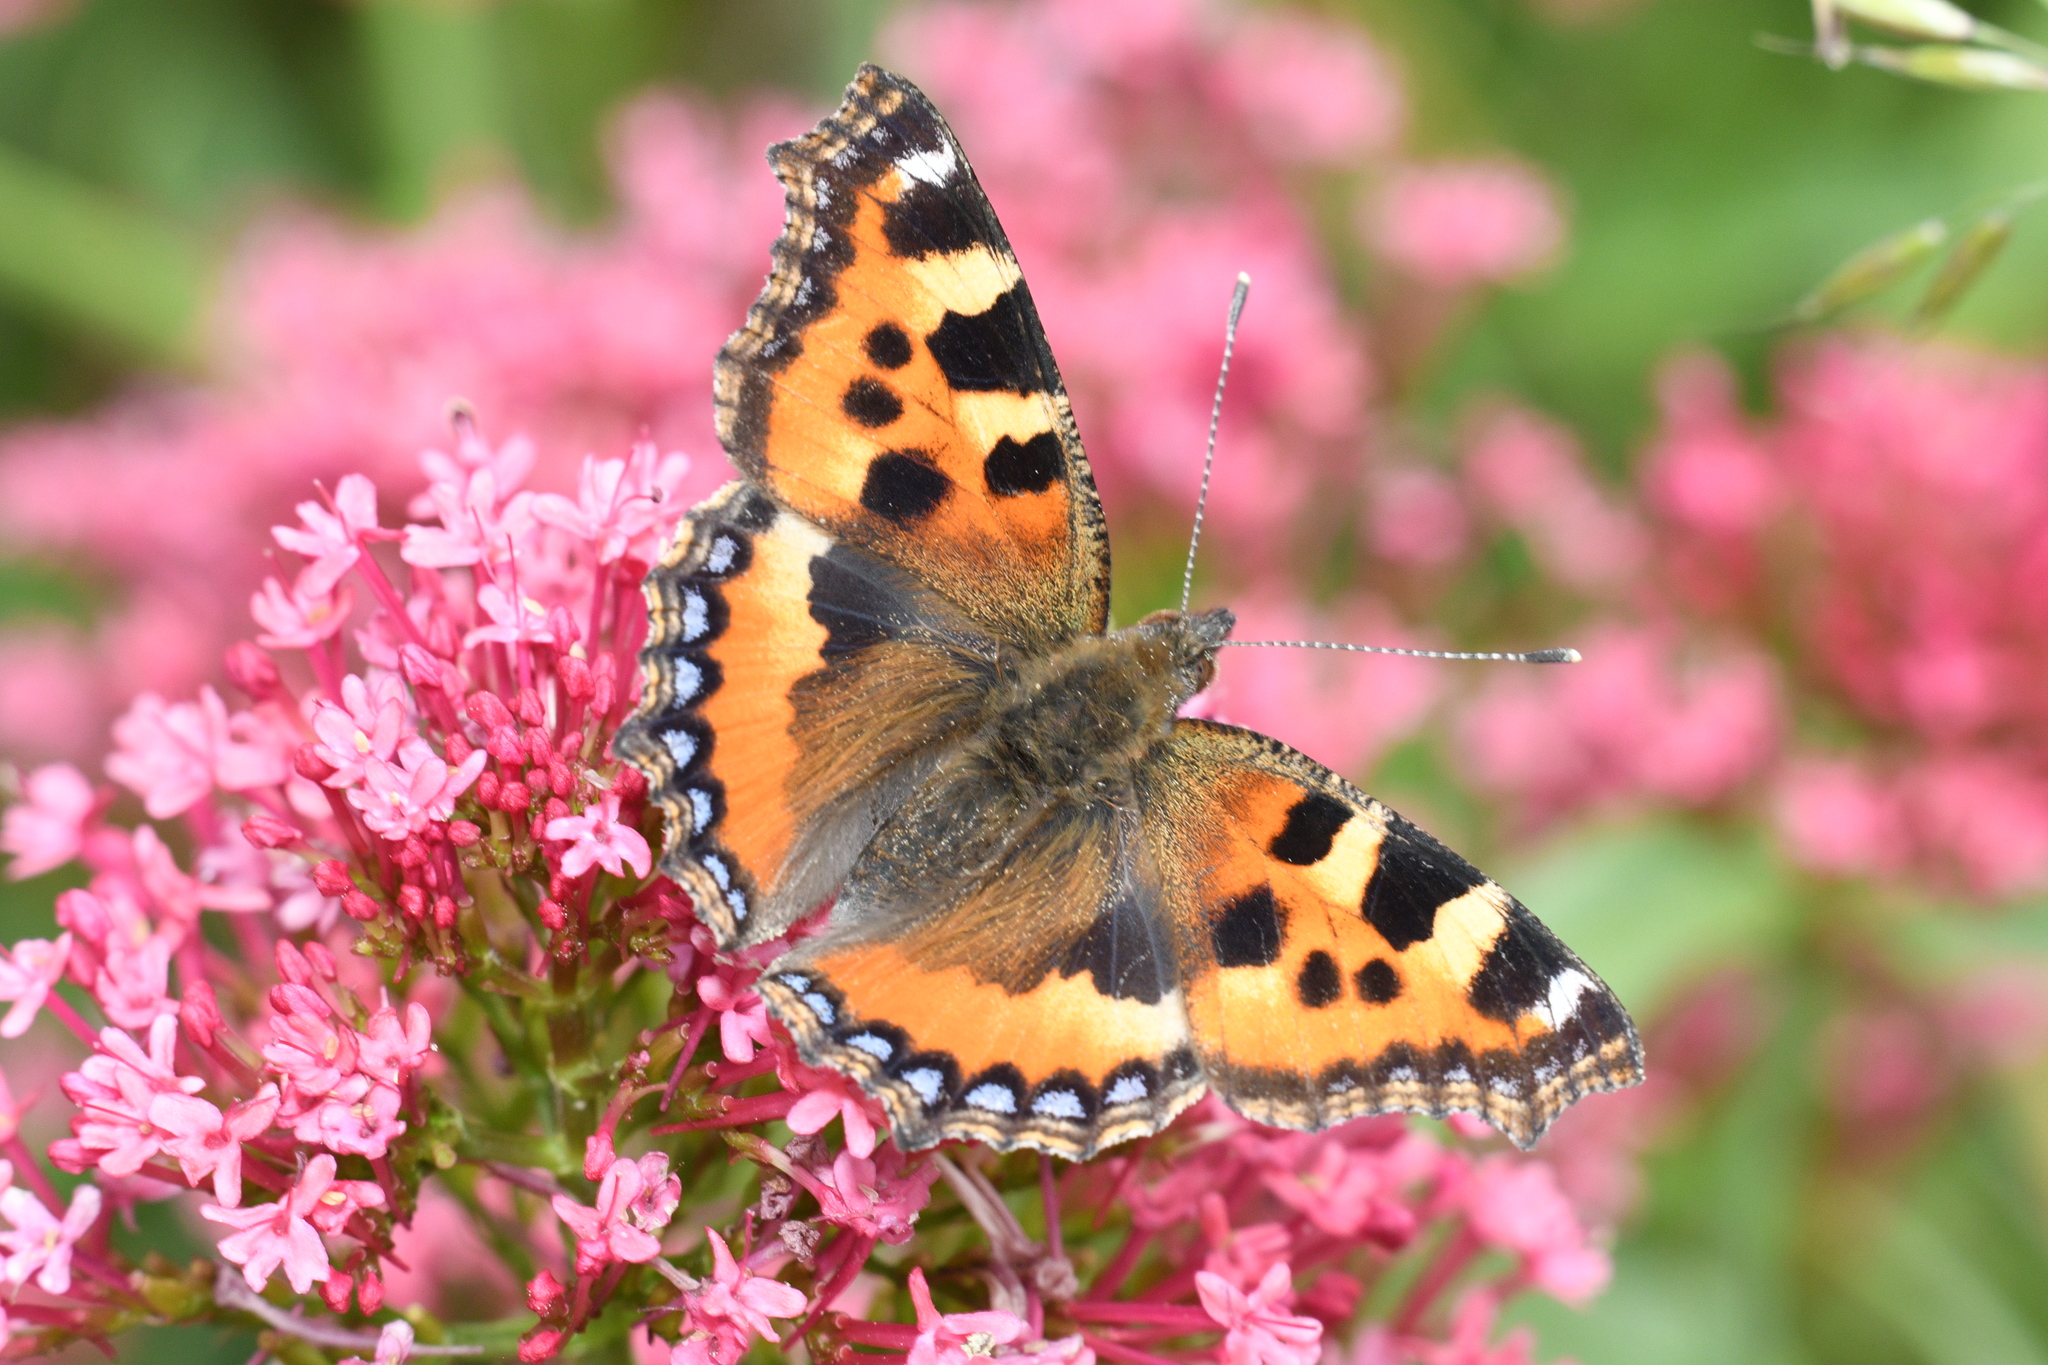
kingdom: Animalia
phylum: Arthropoda
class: Insecta
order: Lepidoptera
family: Nymphalidae
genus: Aglais
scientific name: Aglais urticae
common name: Small tortoiseshell
